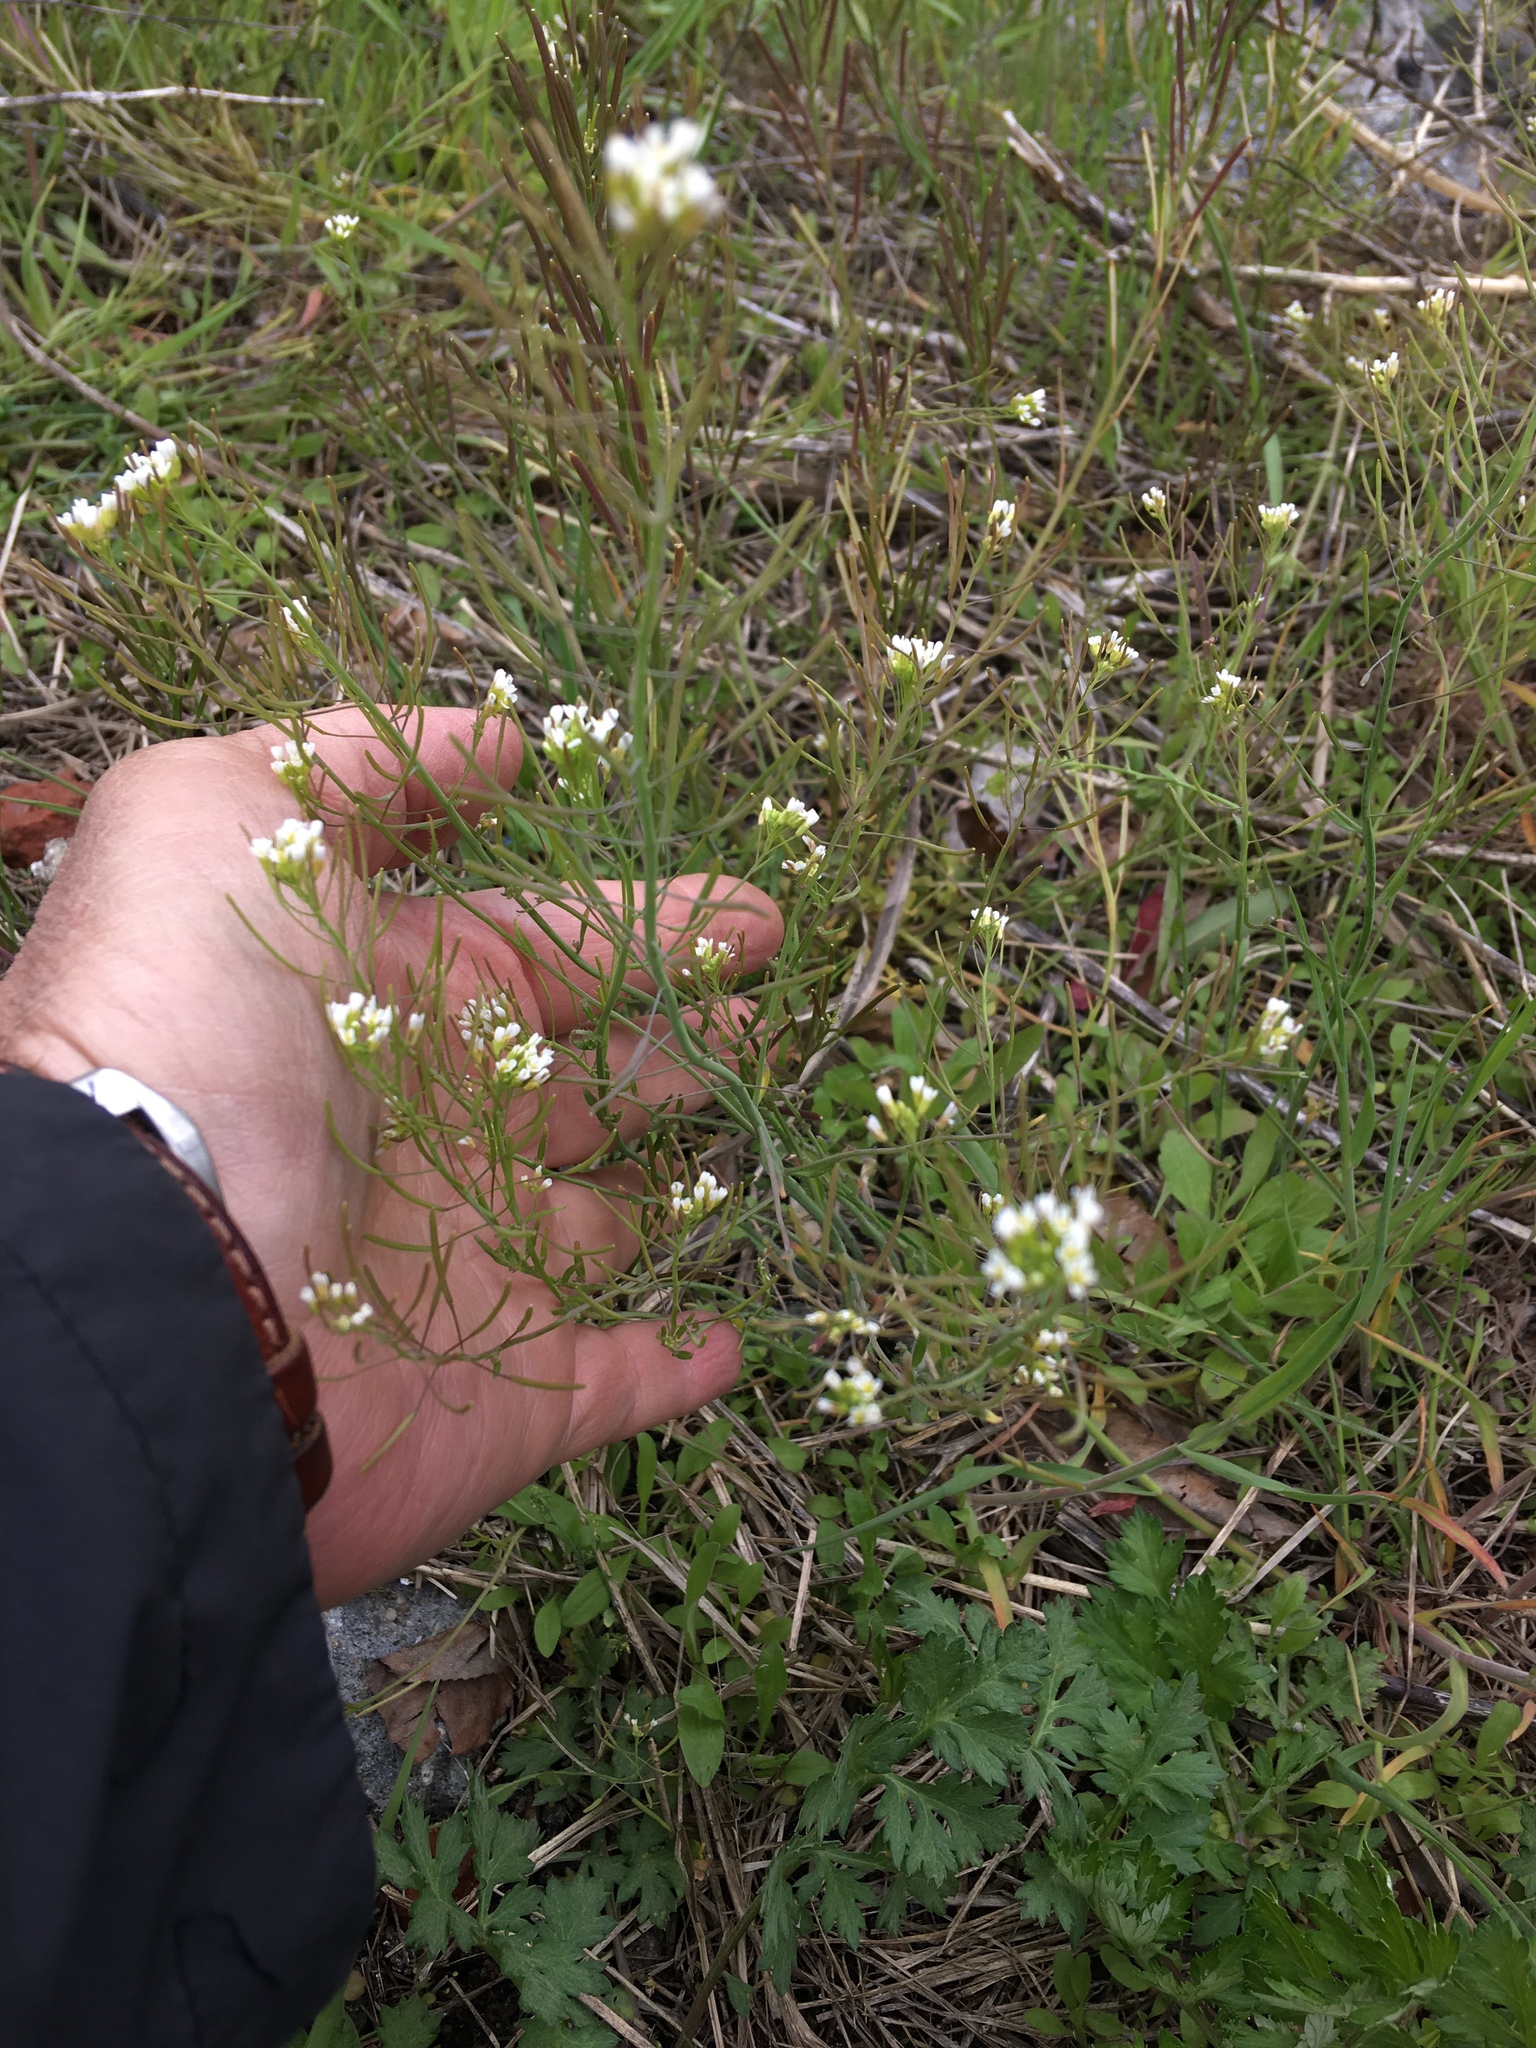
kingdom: Plantae
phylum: Tracheophyta
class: Magnoliopsida
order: Brassicales
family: Brassicaceae
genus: Arabidopsis
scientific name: Arabidopsis thaliana
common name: Thale cress
